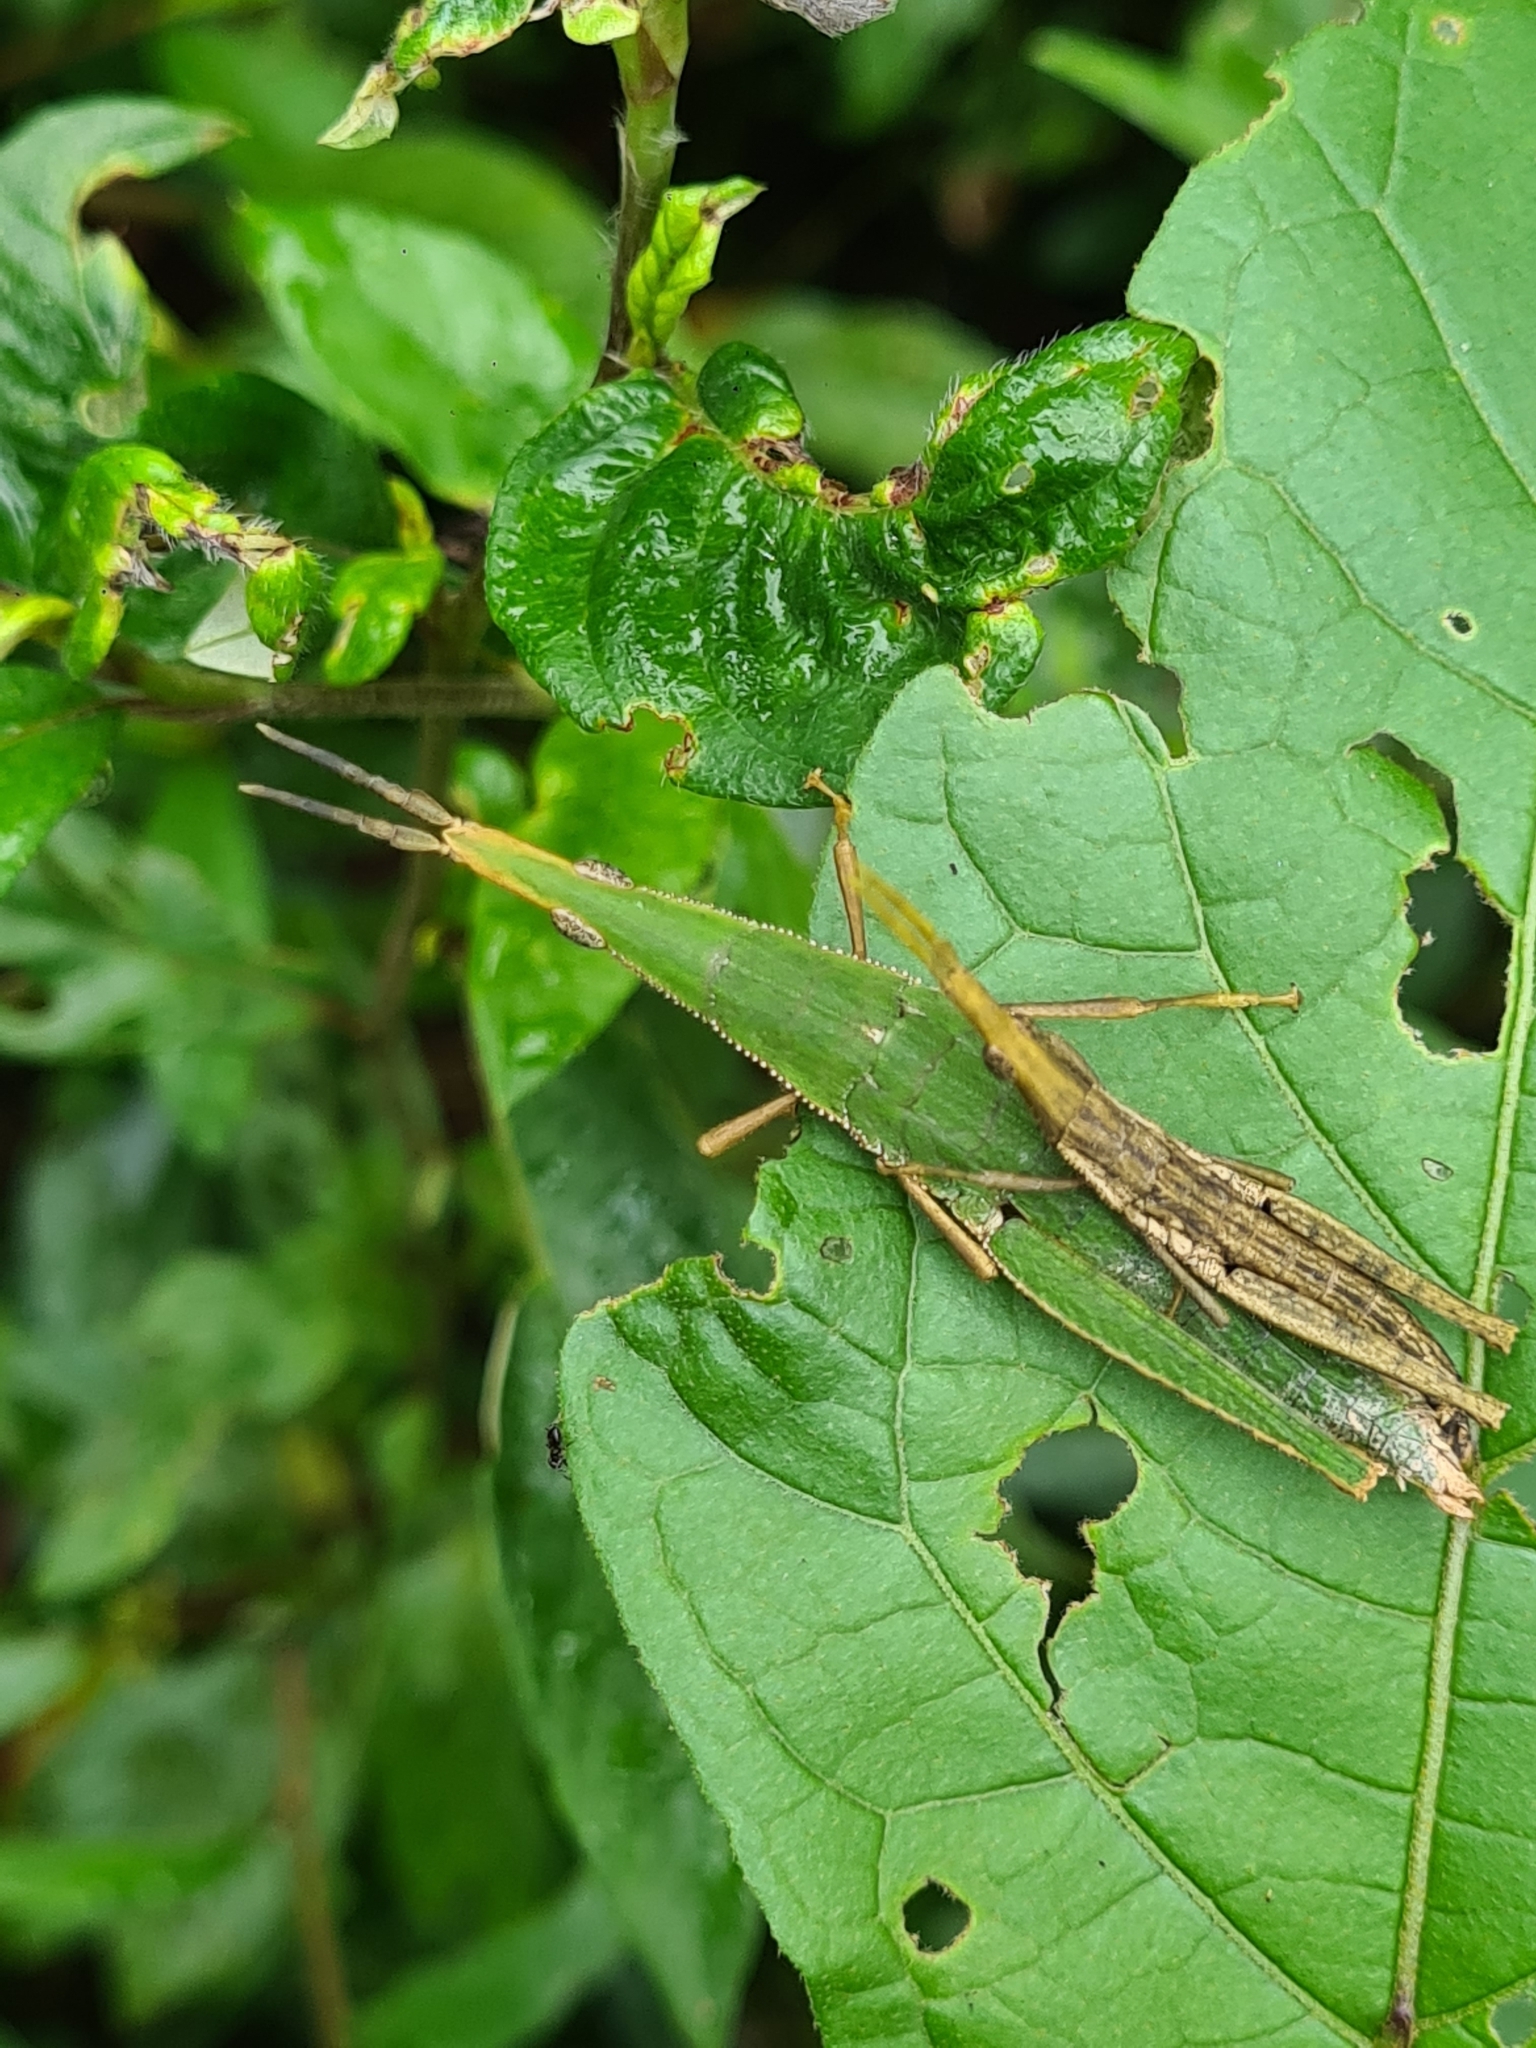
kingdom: Animalia
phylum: Arthropoda
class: Insecta
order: Orthoptera
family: Pyrgomorphidae
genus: Omura
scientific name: Omura congrua
